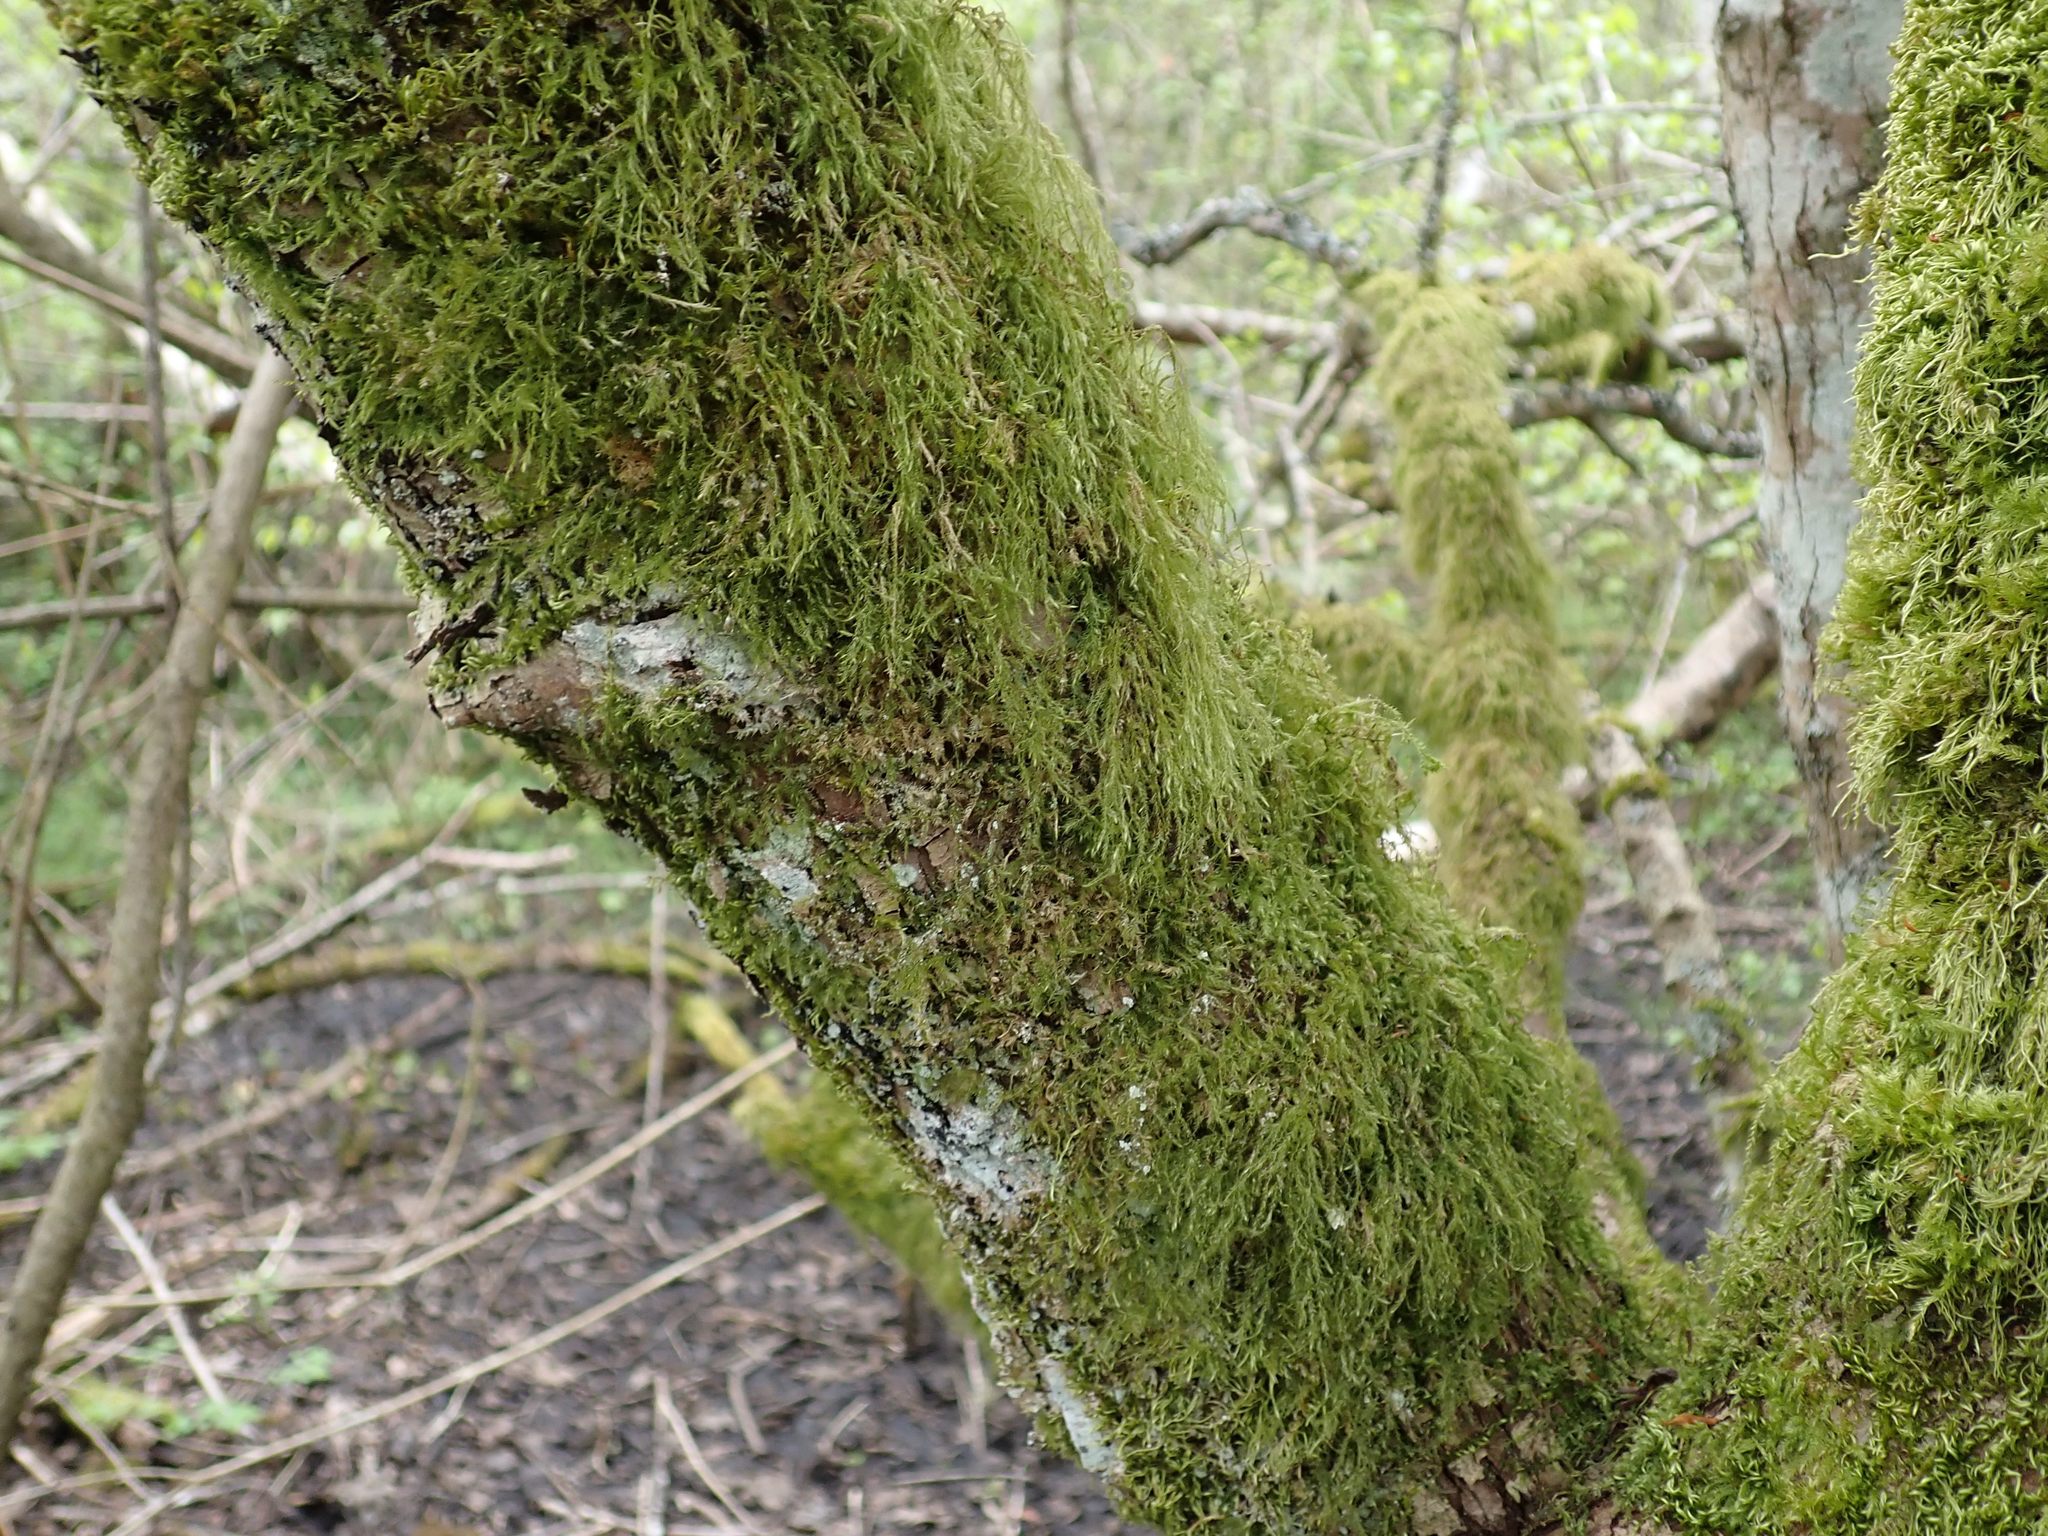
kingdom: Plantae
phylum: Bryophyta
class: Bryopsida
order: Hypnales
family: Lembophyllaceae
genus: Pseudisothecium
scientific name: Pseudisothecium stoloniferum
